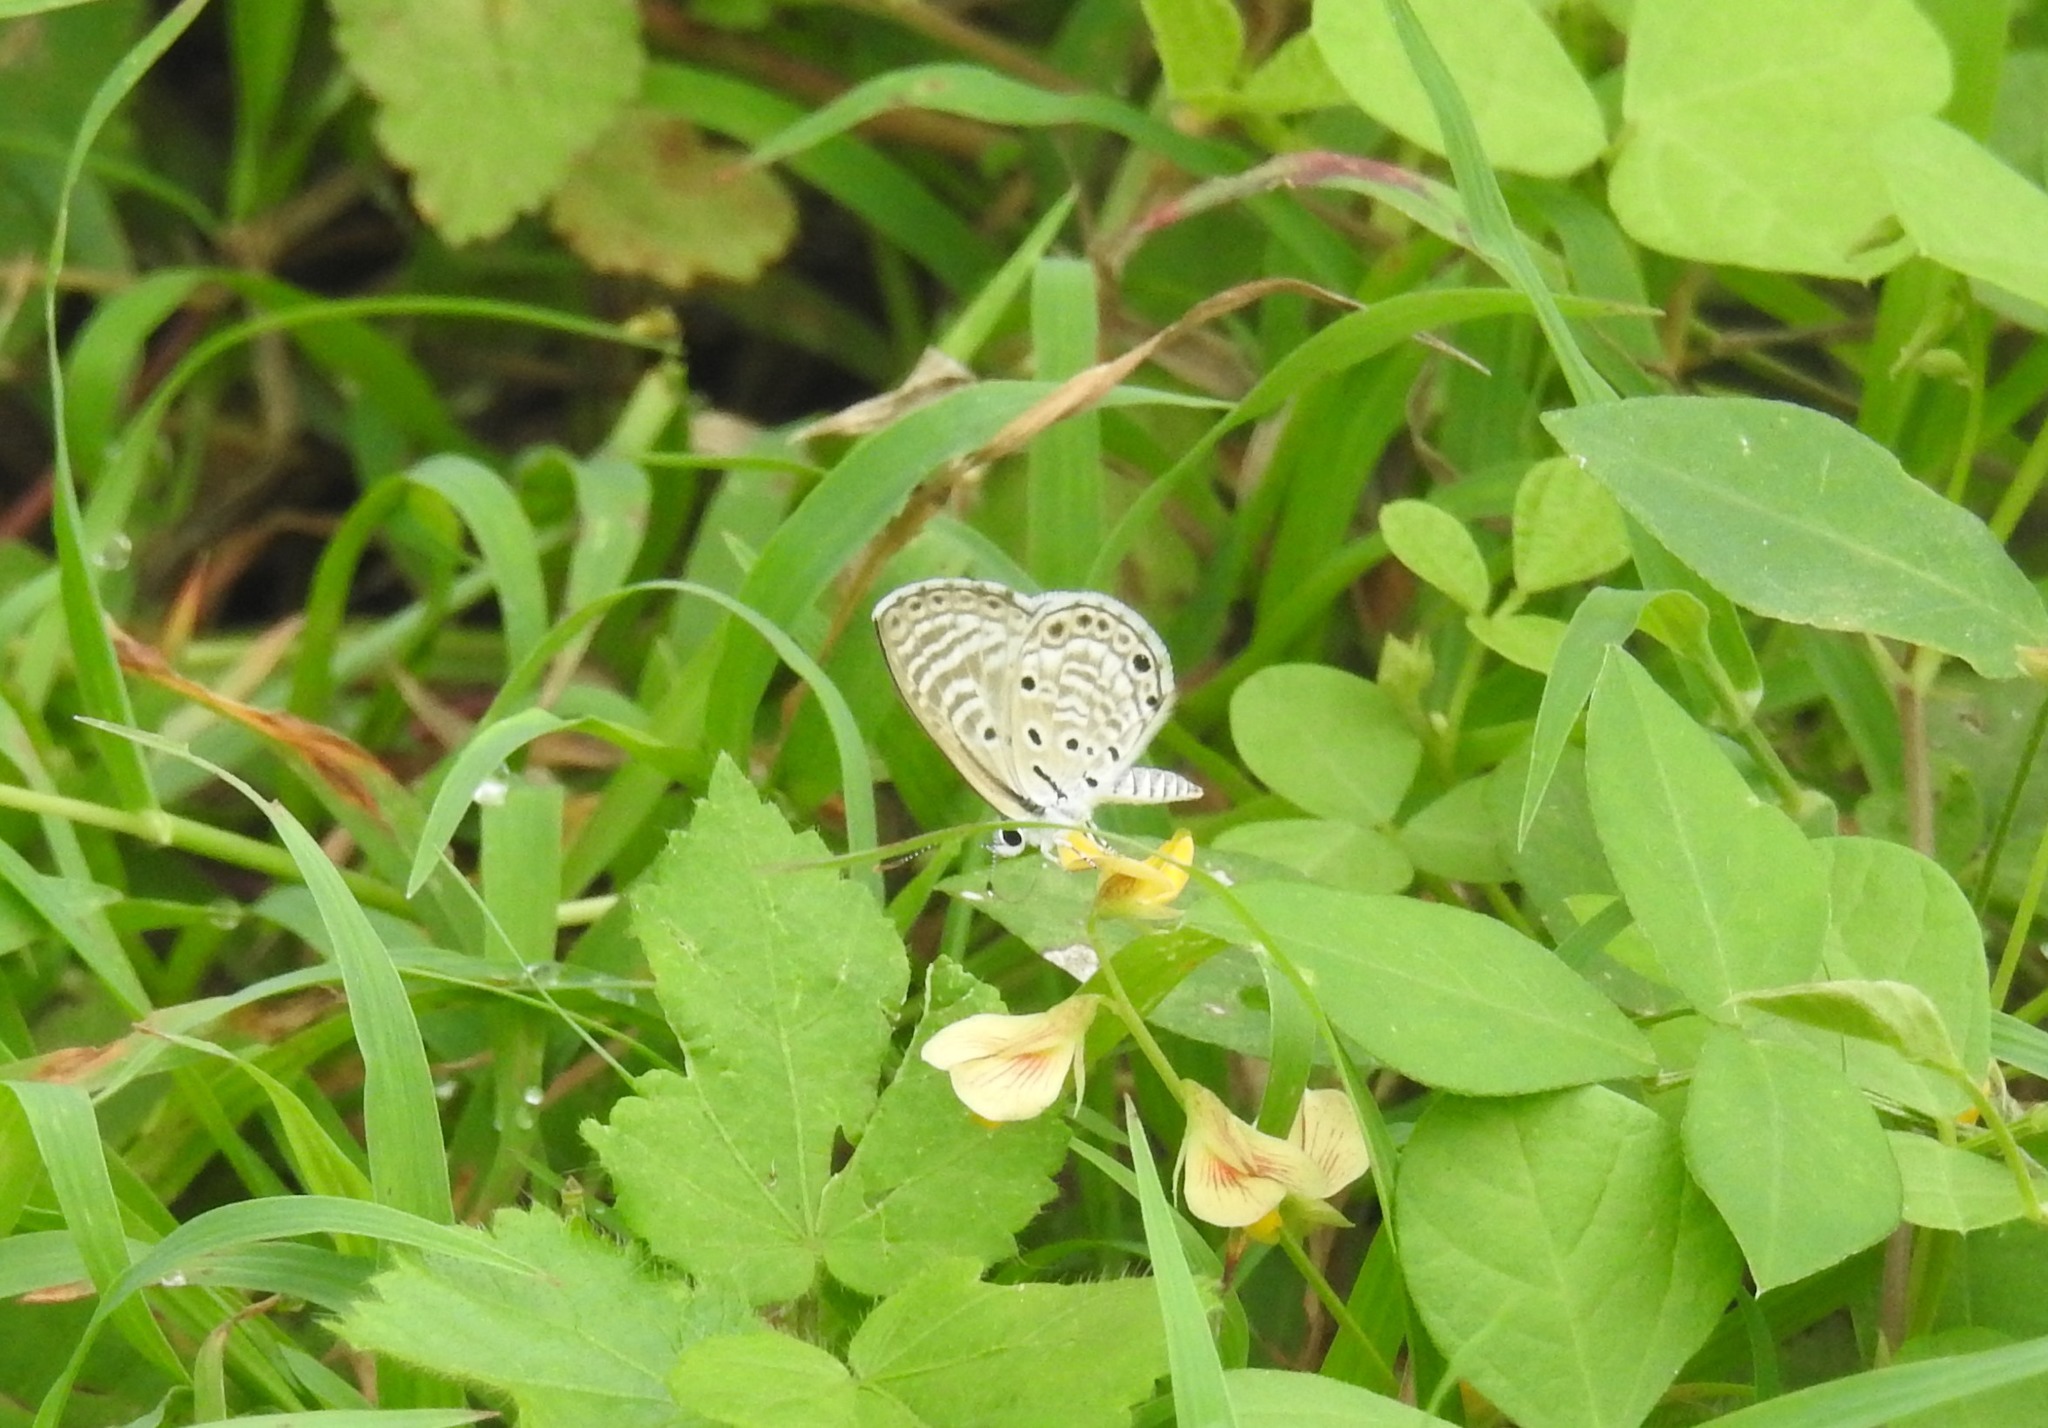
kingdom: Animalia
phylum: Arthropoda
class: Insecta
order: Lepidoptera
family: Lycaenidae
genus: Azanus
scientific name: Azanus jesous
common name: African babul blue
